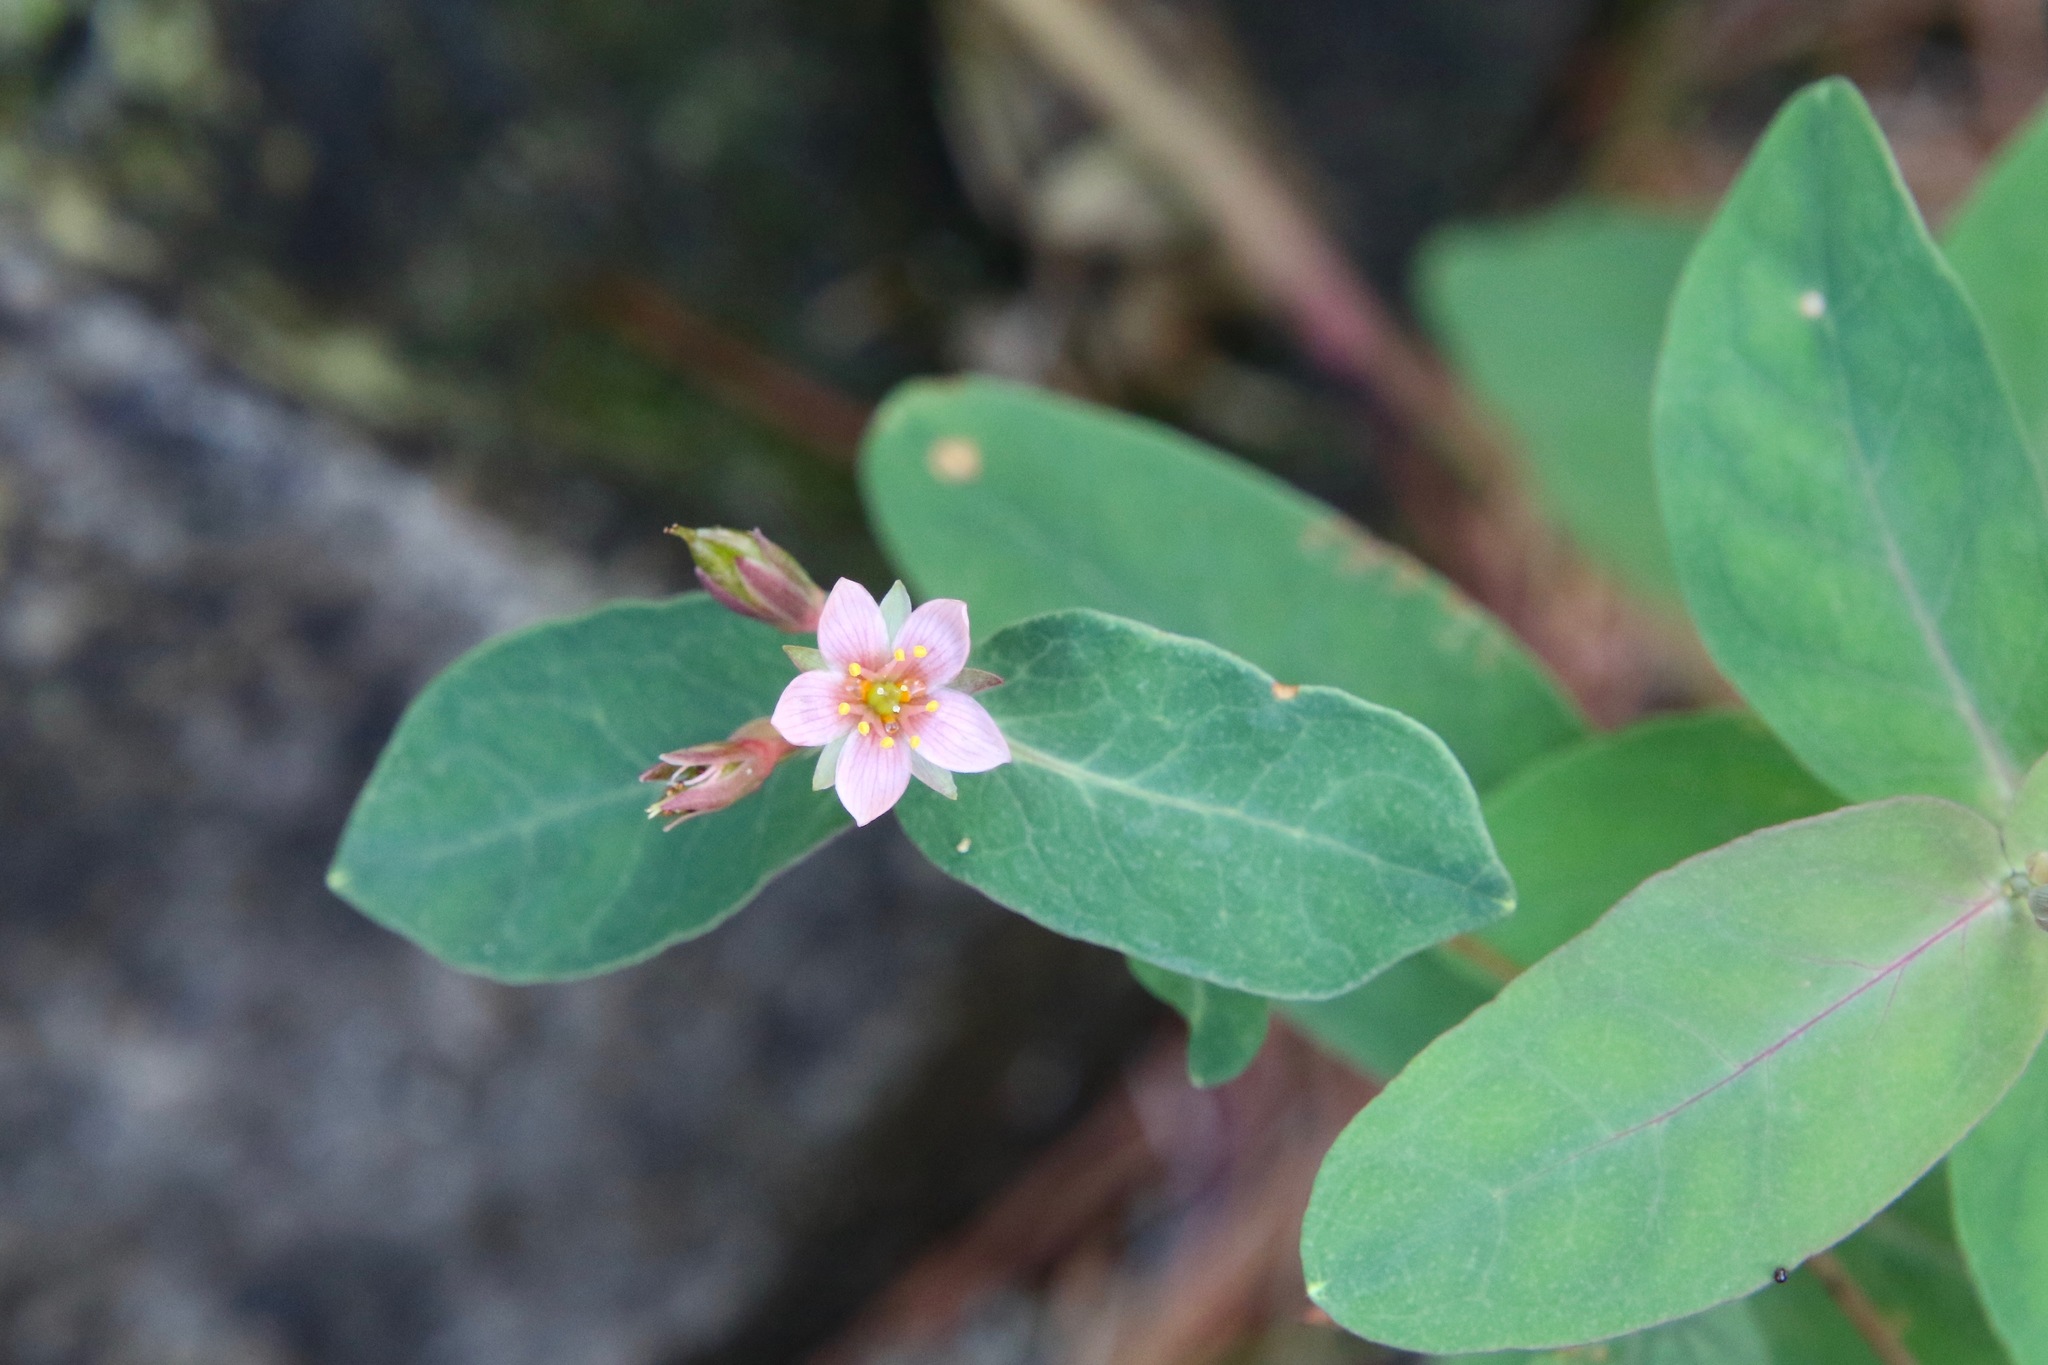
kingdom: Plantae
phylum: Tracheophyta
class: Magnoliopsida
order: Malpighiales
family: Hypericaceae
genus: Triadenum
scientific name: Triadenum virginicum
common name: Marsh st. john's-wort
